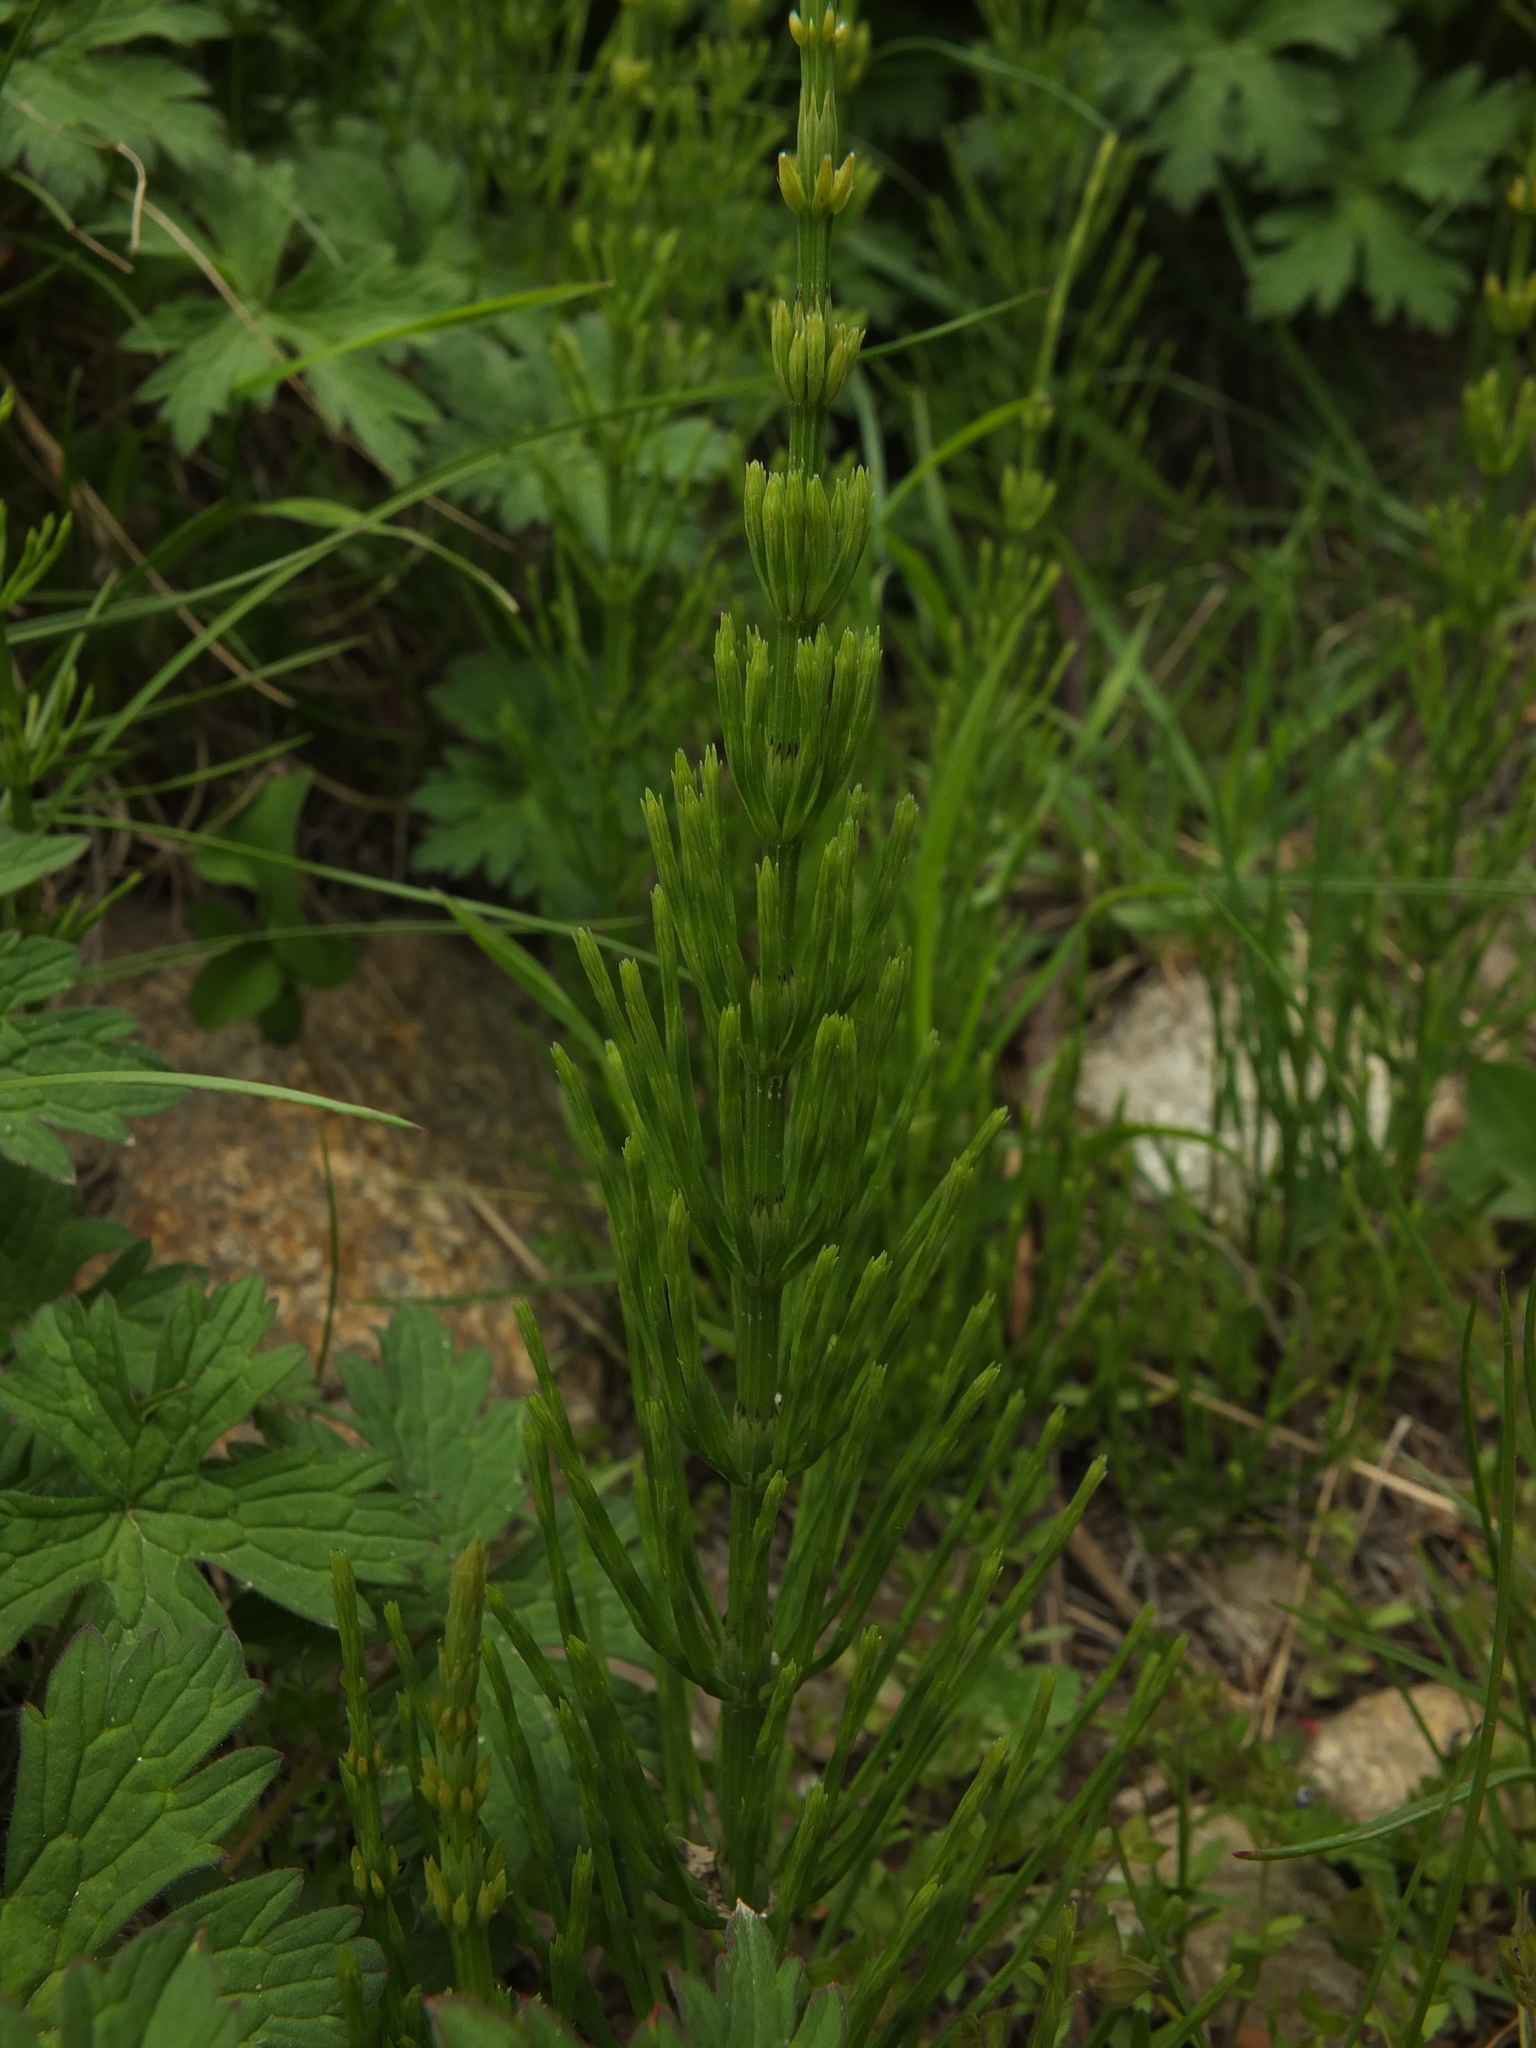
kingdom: Plantae
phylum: Tracheophyta
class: Polypodiopsida
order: Equisetales
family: Equisetaceae
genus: Equisetum
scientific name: Equisetum arvense
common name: Field horsetail
